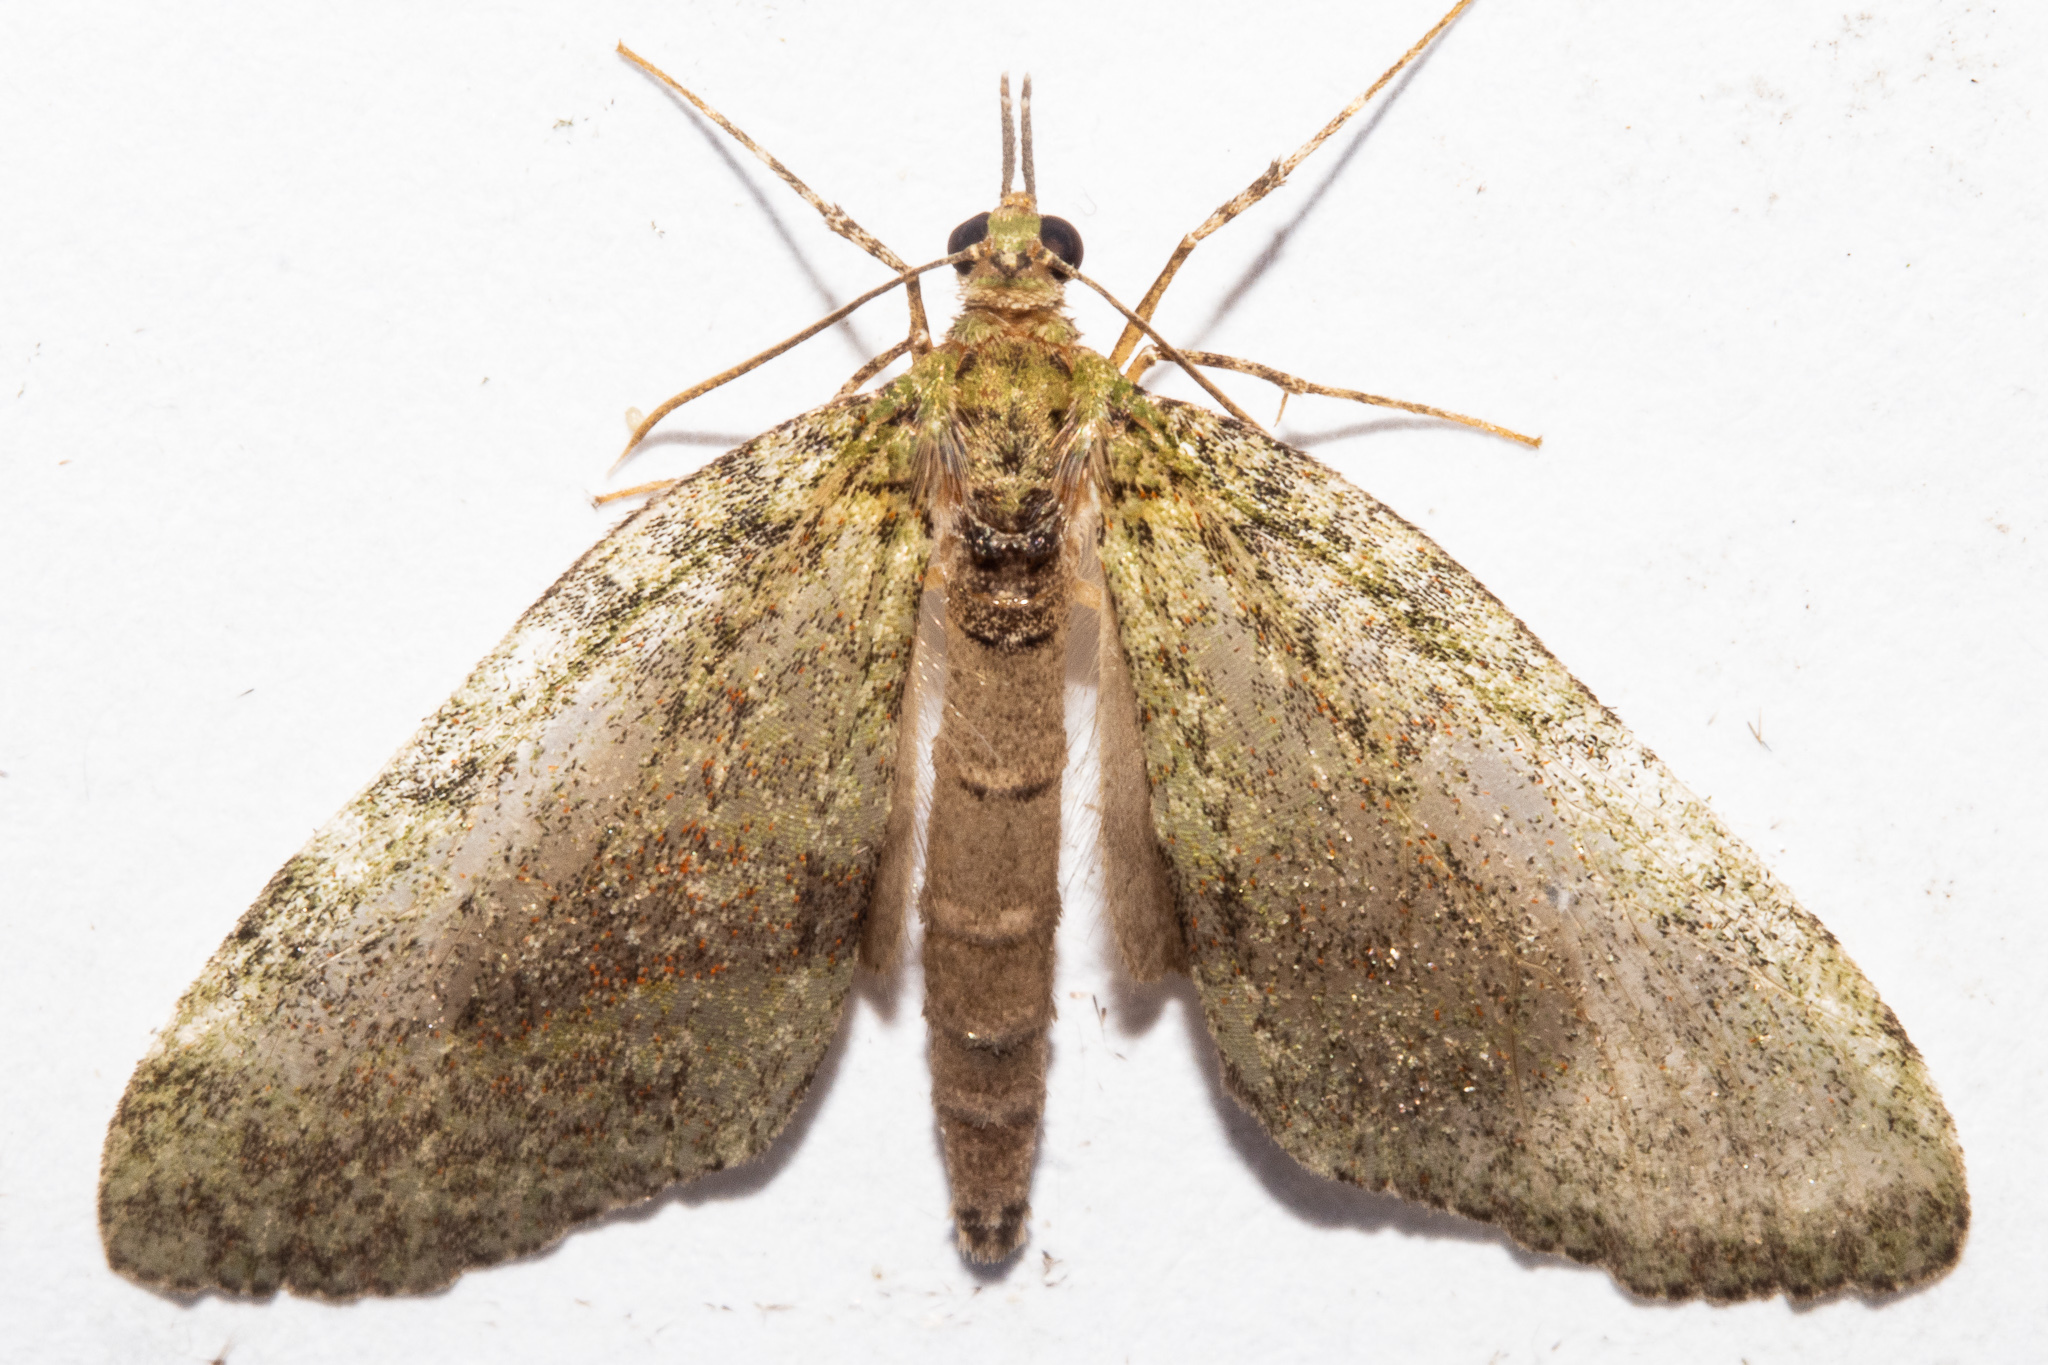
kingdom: Animalia
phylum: Arthropoda
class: Insecta
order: Lepidoptera
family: Geometridae
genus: Tatosoma
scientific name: Tatosoma transitaria
